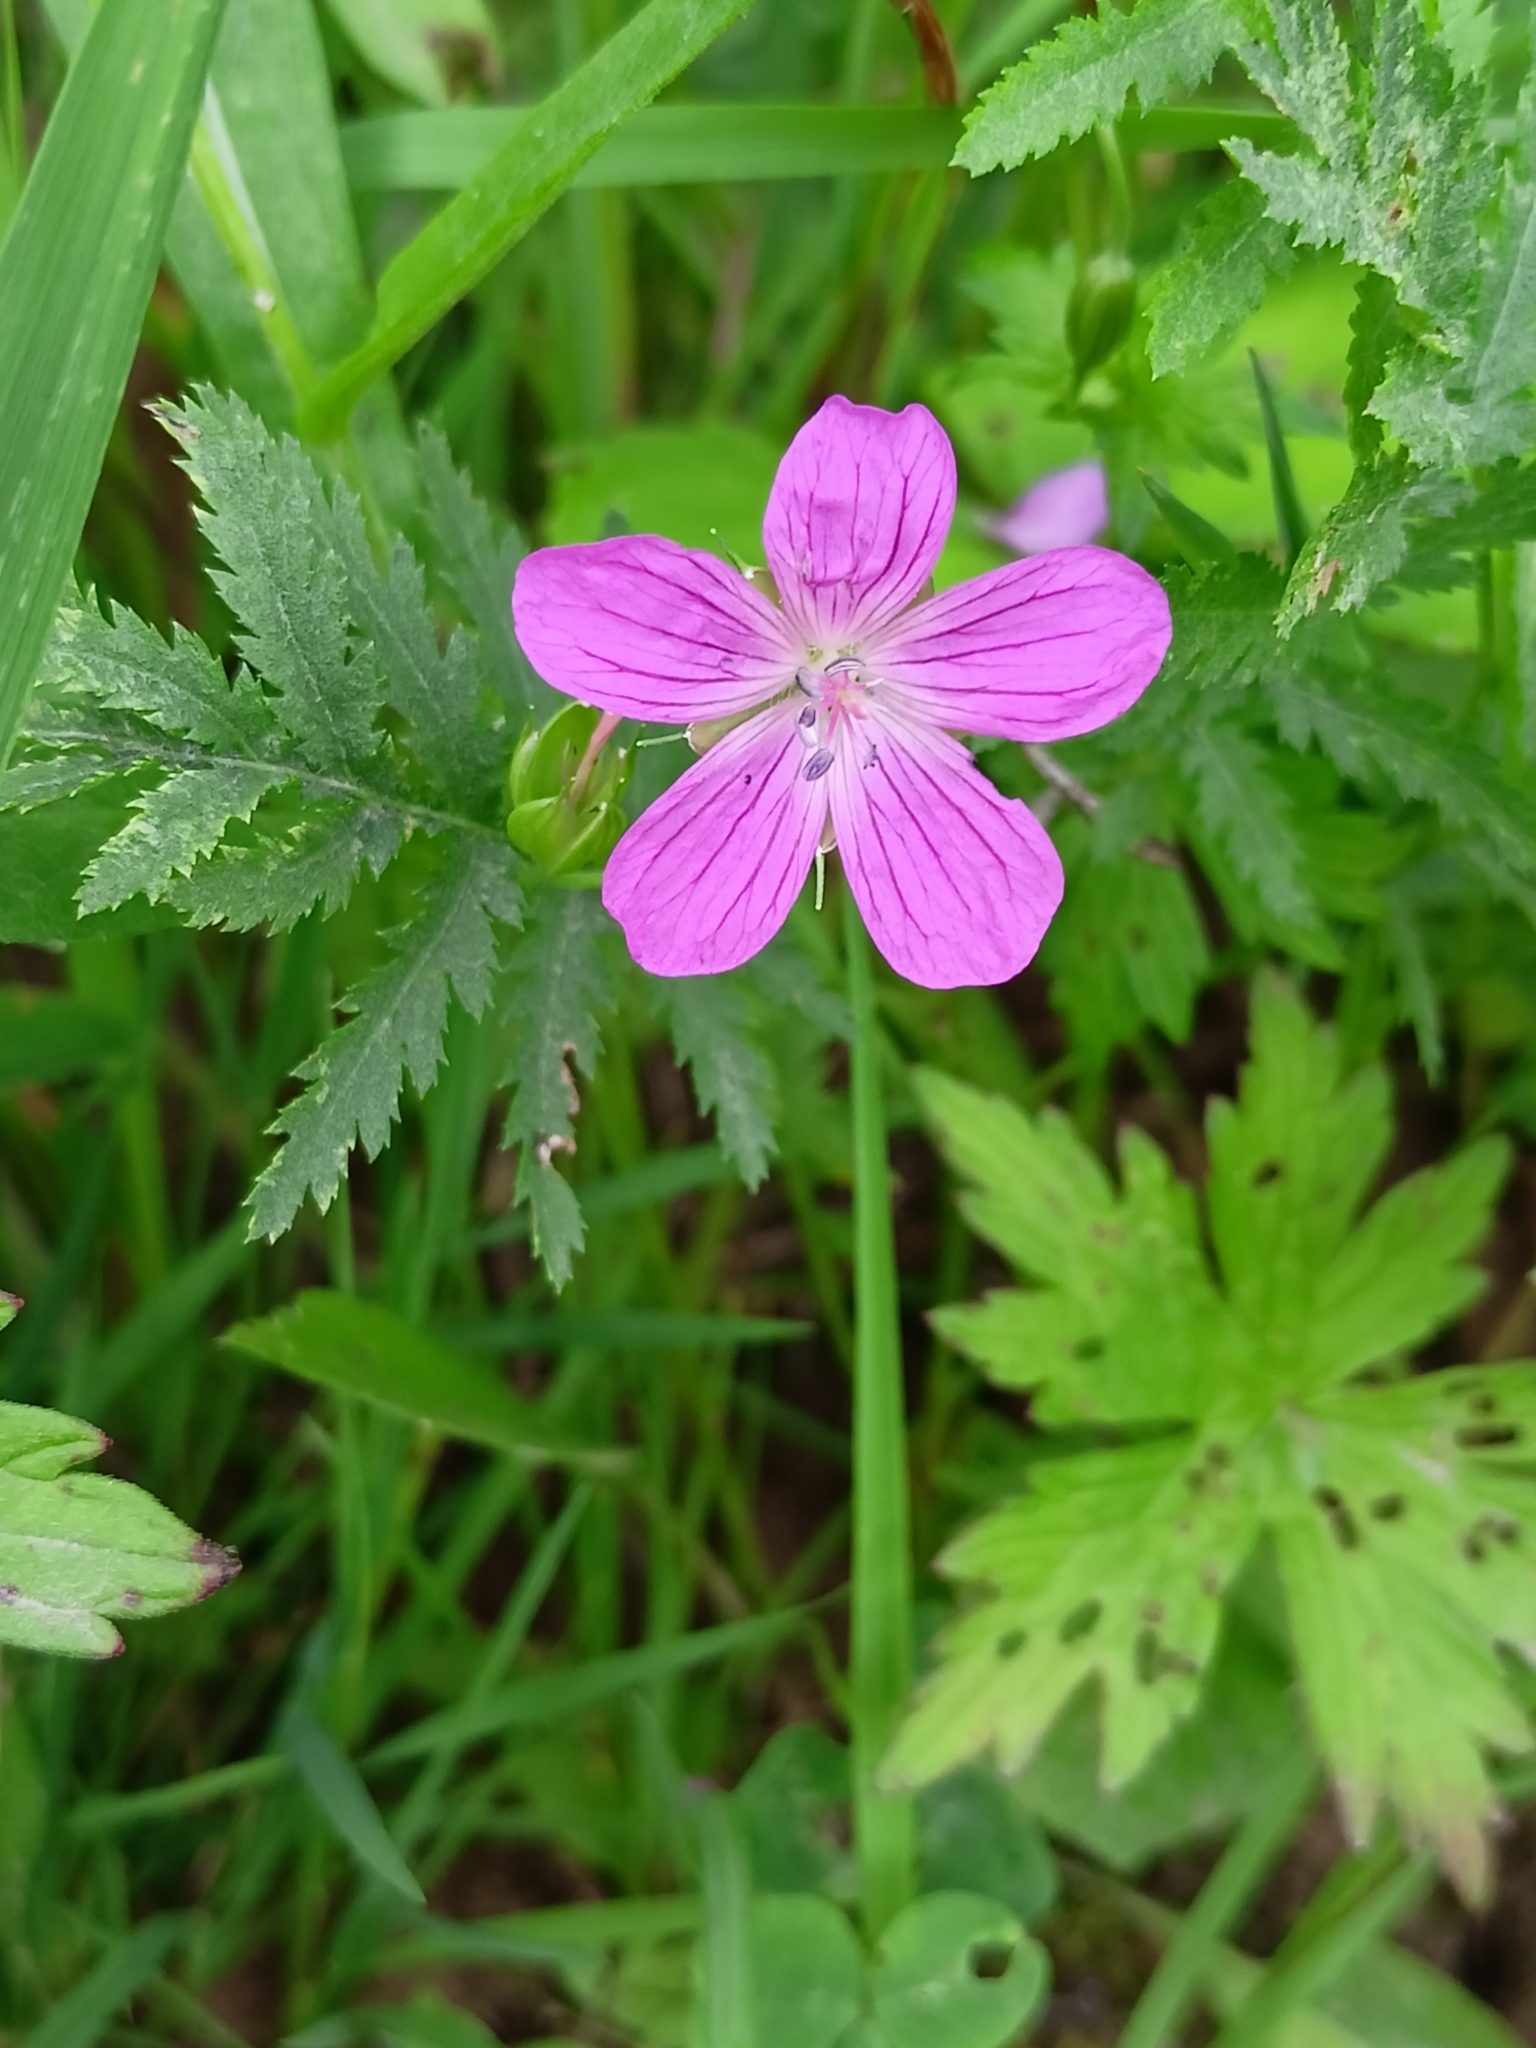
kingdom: Plantae
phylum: Tracheophyta
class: Magnoliopsida
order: Geraniales
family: Geraniaceae
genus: Geranium
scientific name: Geranium palustre
